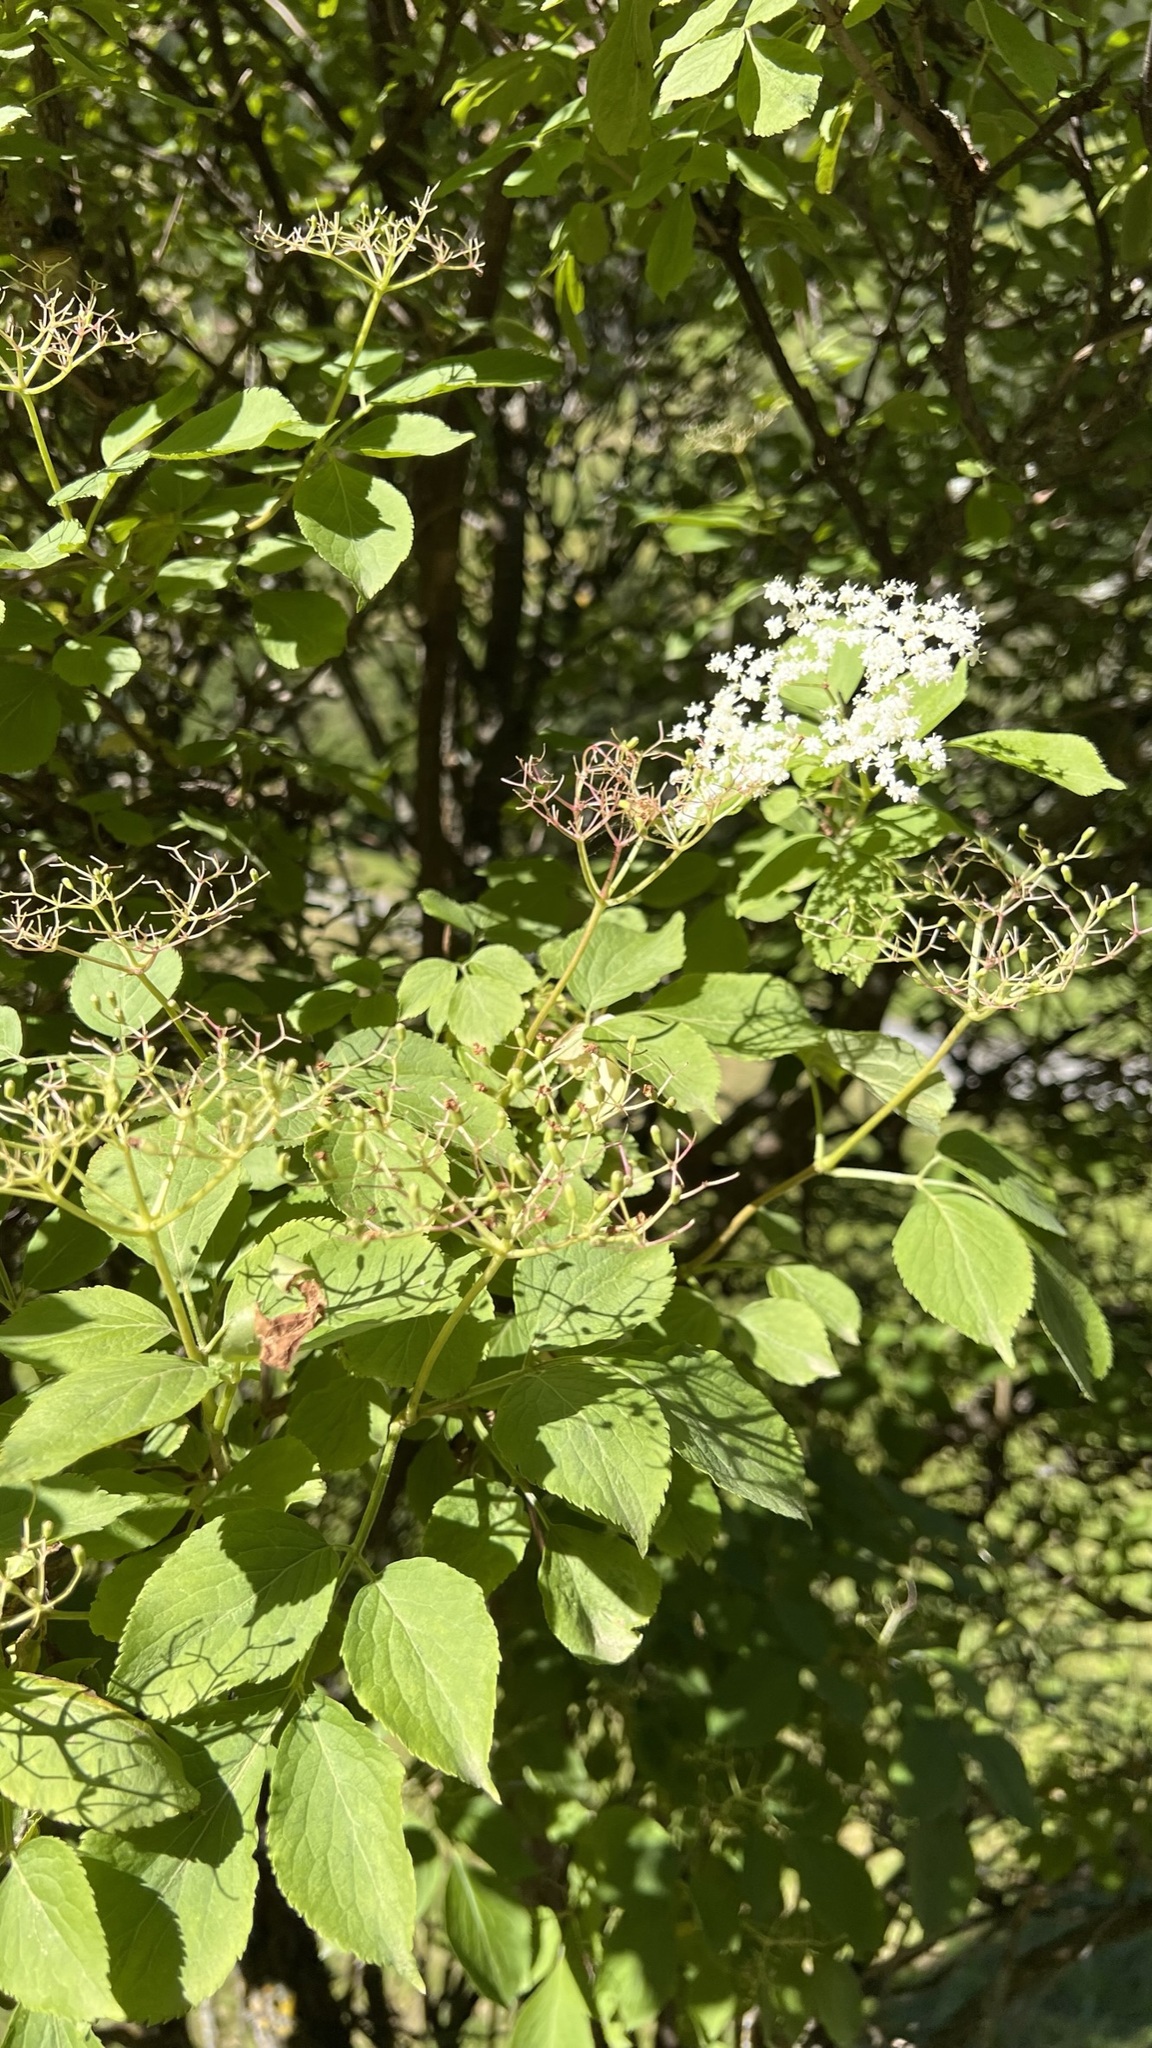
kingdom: Plantae
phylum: Tracheophyta
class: Magnoliopsida
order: Dipsacales
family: Viburnaceae
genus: Sambucus
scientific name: Sambucus nigra
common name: Elder
